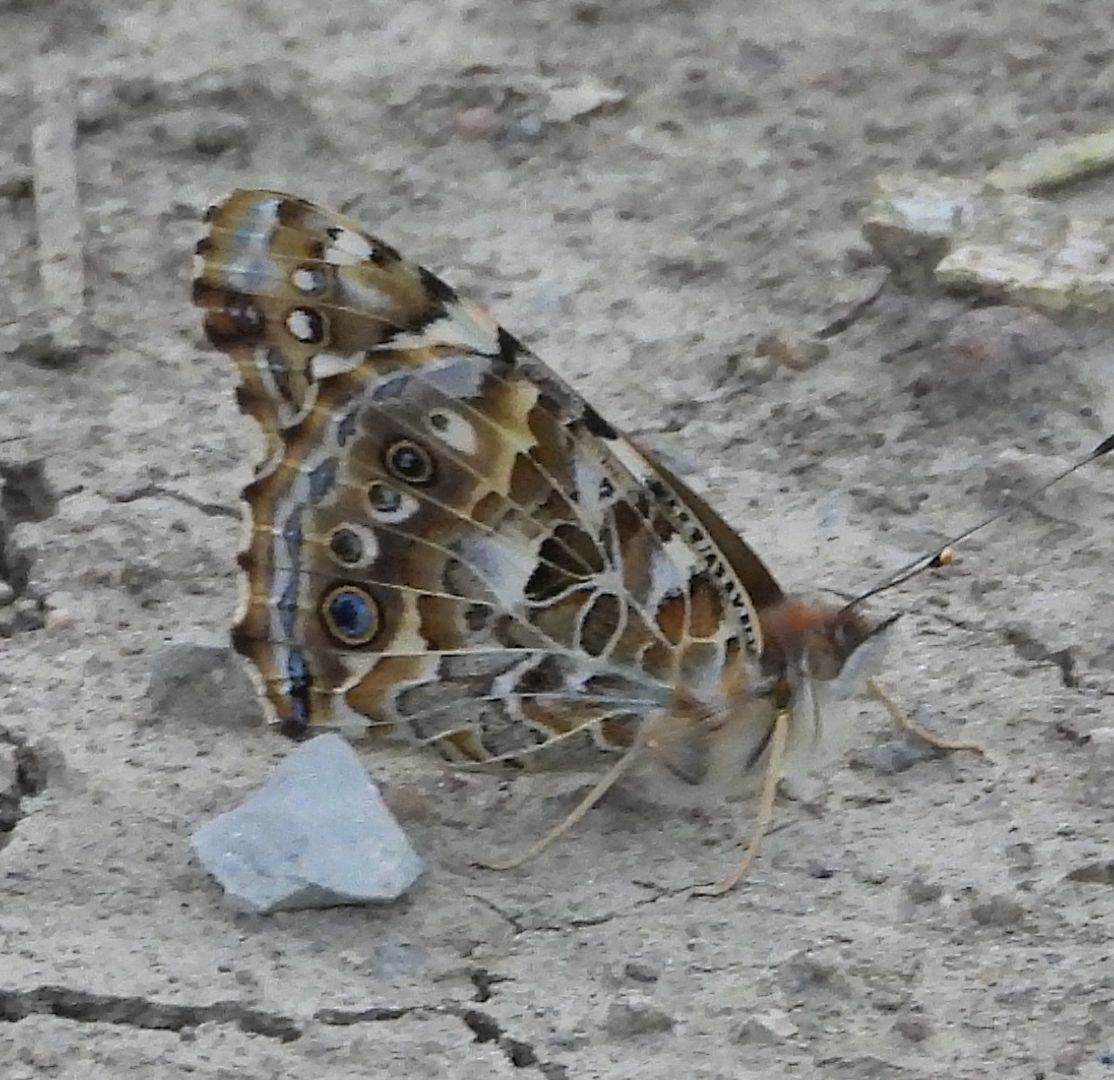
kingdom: Animalia
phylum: Arthropoda
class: Insecta
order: Lepidoptera
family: Nymphalidae
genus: Vanessa
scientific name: Vanessa cardui
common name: Painted lady
